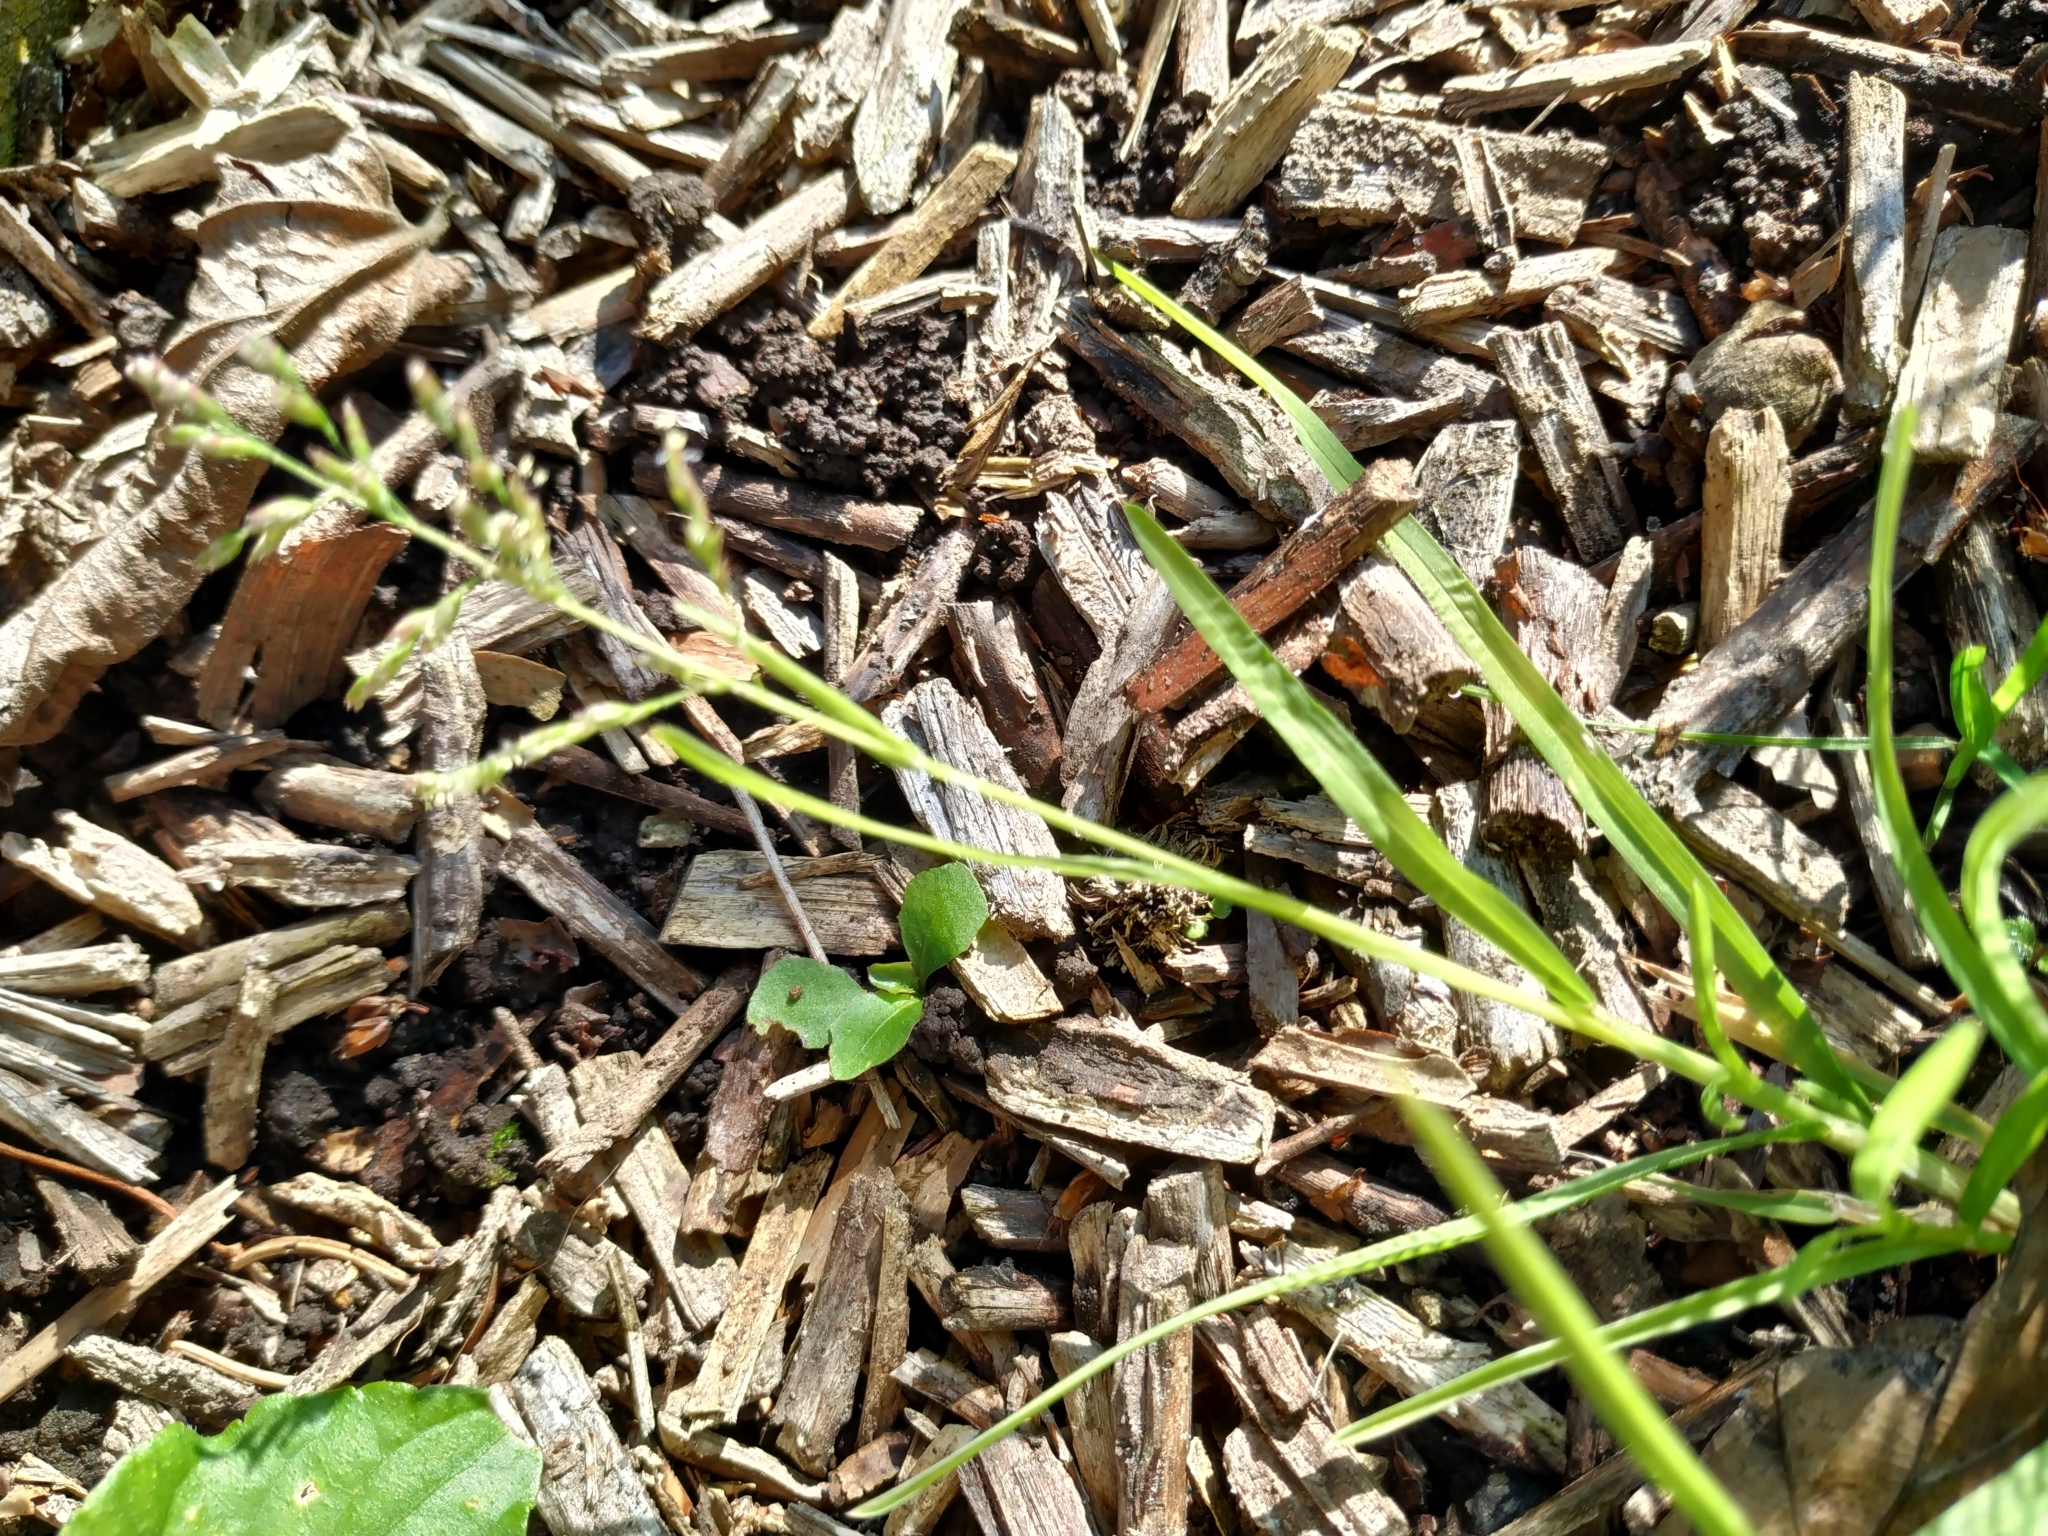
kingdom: Plantae
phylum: Tracheophyta
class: Liliopsida
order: Poales
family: Poaceae
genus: Poa
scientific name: Poa annua
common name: Annual bluegrass
